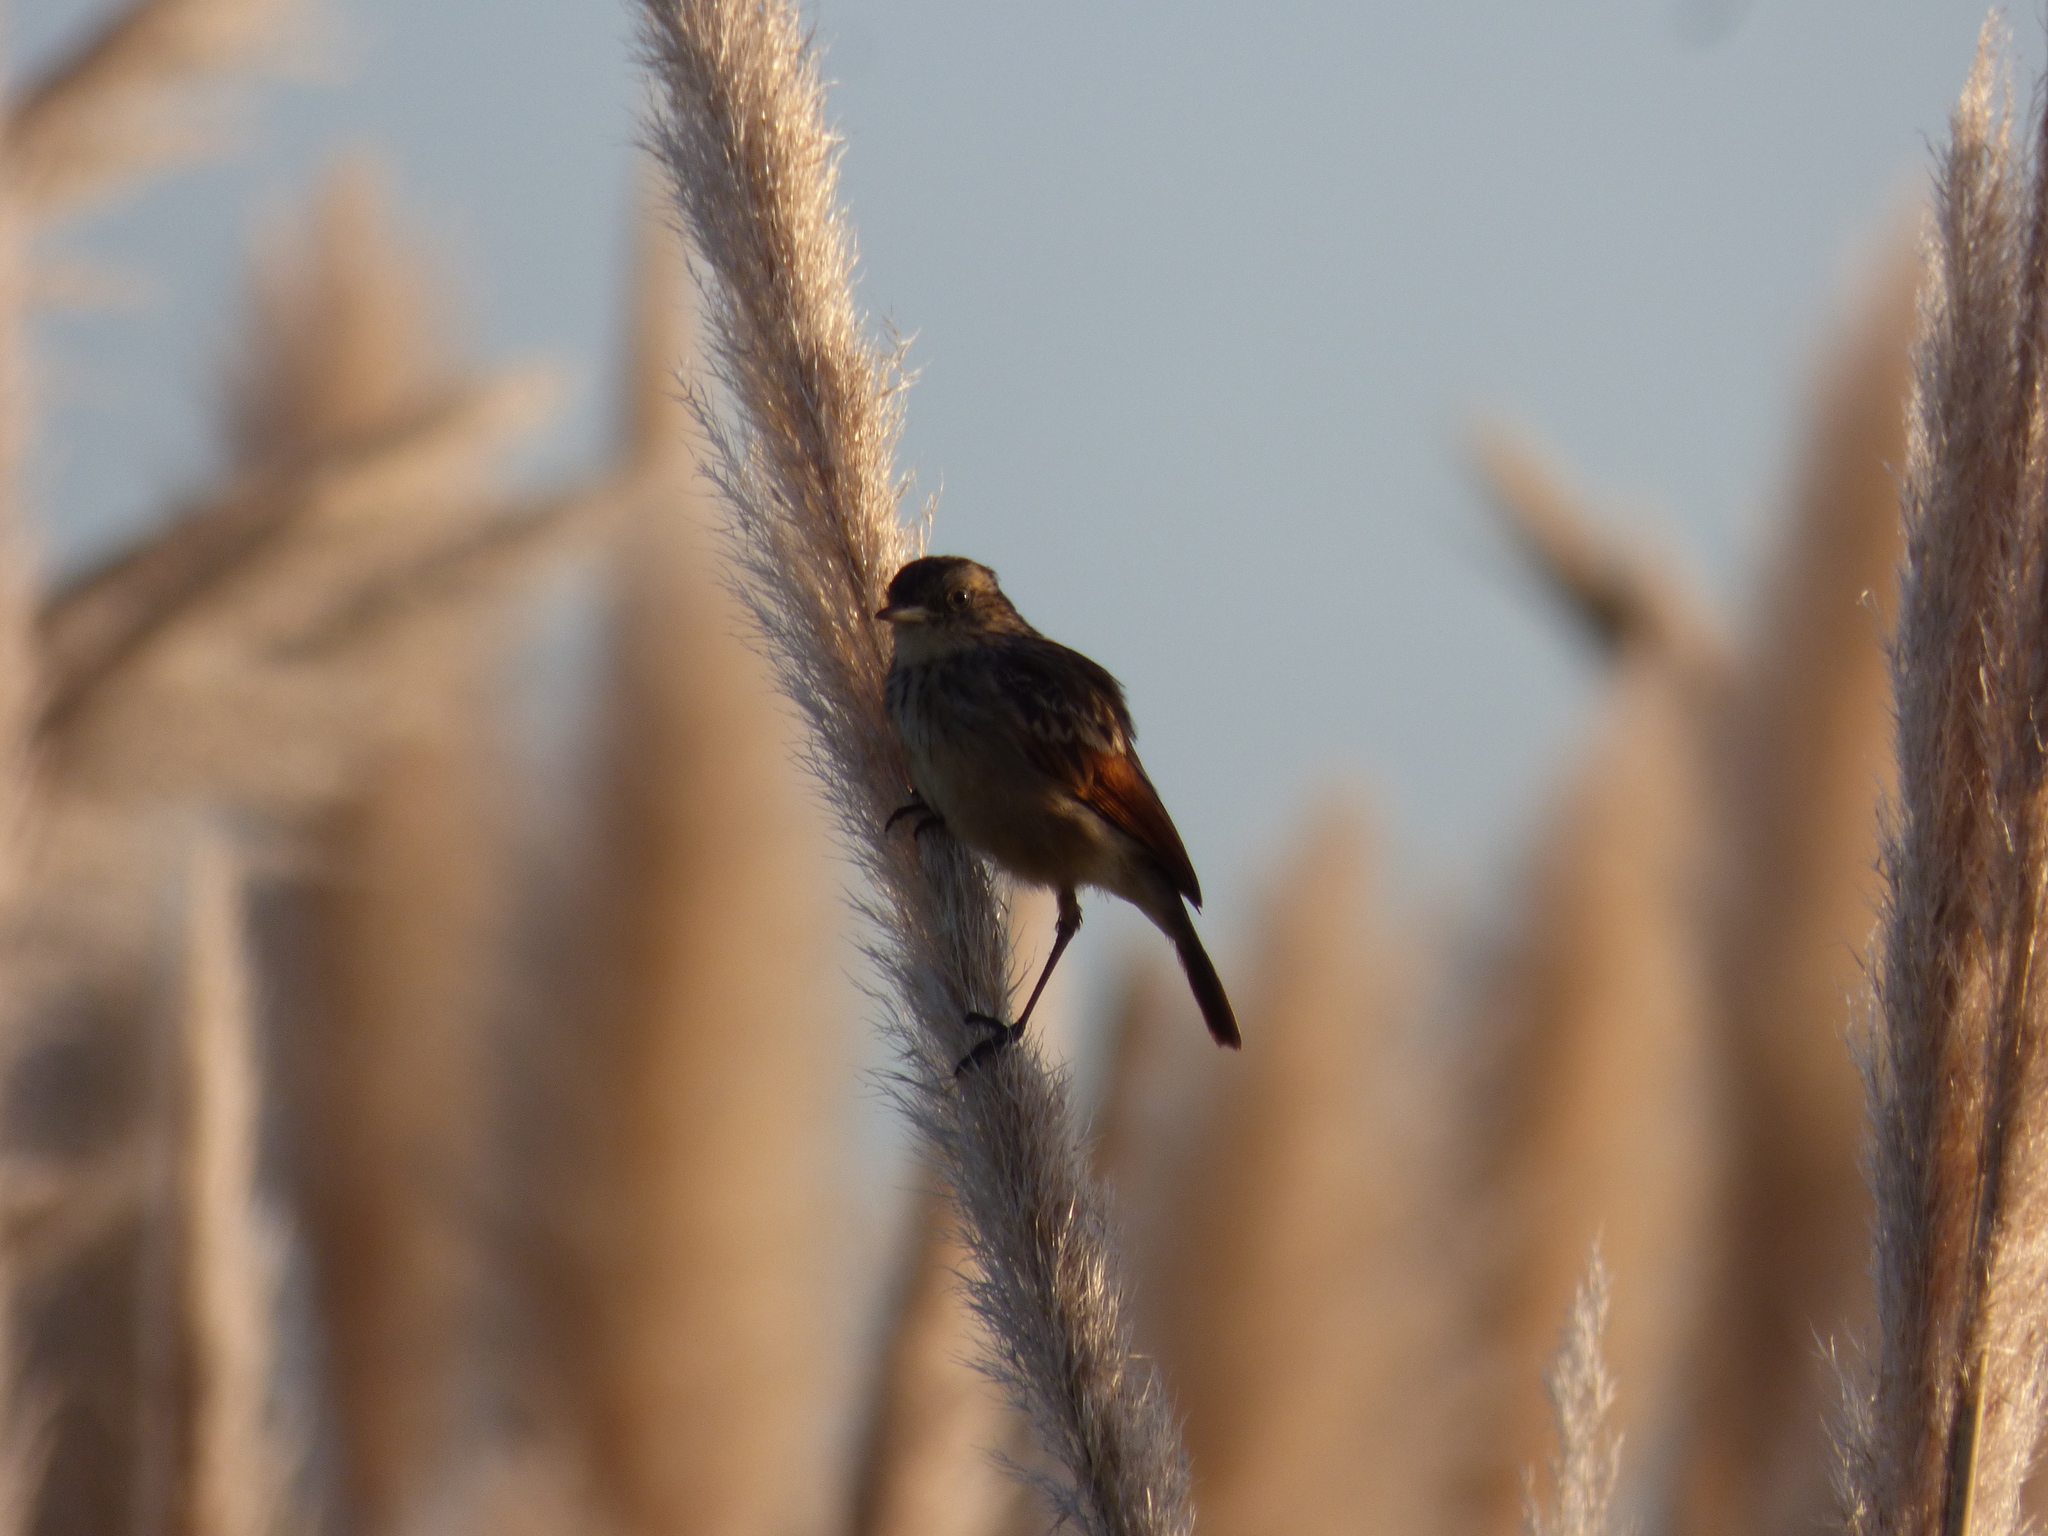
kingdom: Animalia
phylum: Chordata
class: Aves
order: Passeriformes
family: Tyrannidae
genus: Hymenops
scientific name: Hymenops perspicillatus
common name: Spectacled tyrant
